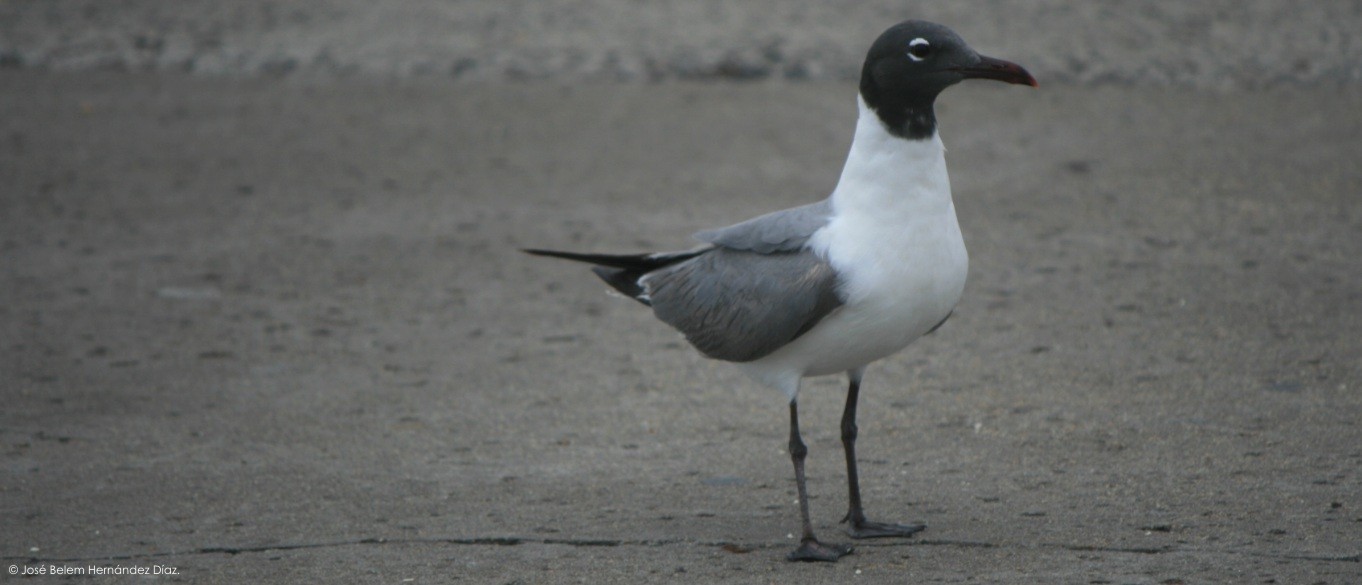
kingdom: Animalia
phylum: Chordata
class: Aves
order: Charadriiformes
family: Laridae
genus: Leucophaeus
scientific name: Leucophaeus atricilla
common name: Laughing gull
